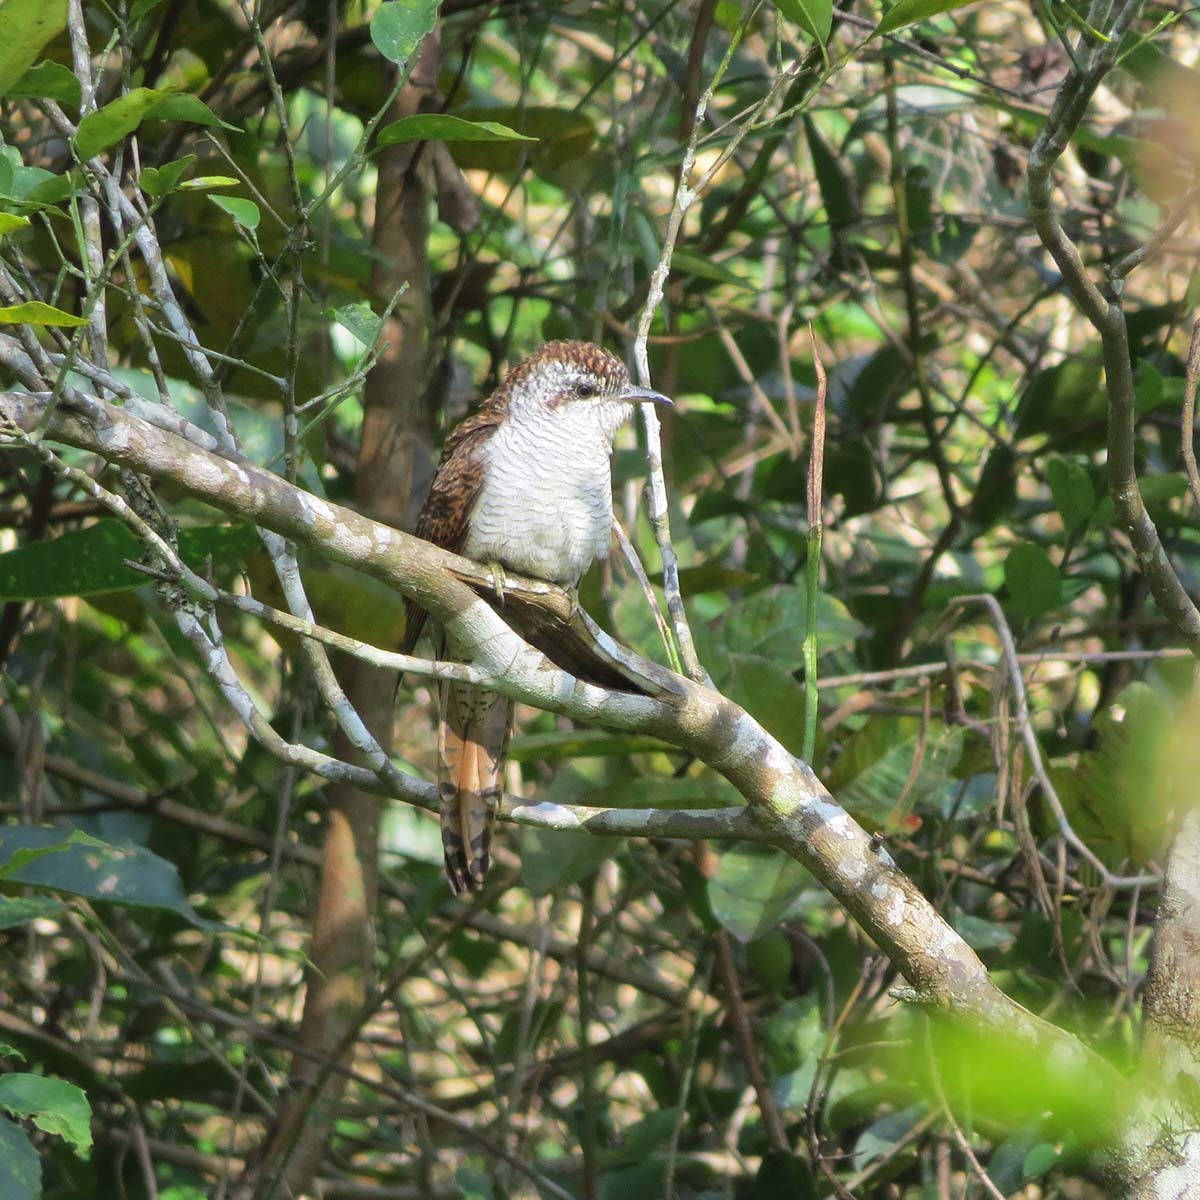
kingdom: Animalia
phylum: Chordata
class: Aves
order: Cuculiformes
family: Cuculidae
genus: Cacomantis
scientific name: Cacomantis sonneratii
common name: Banded bay cuckoo
